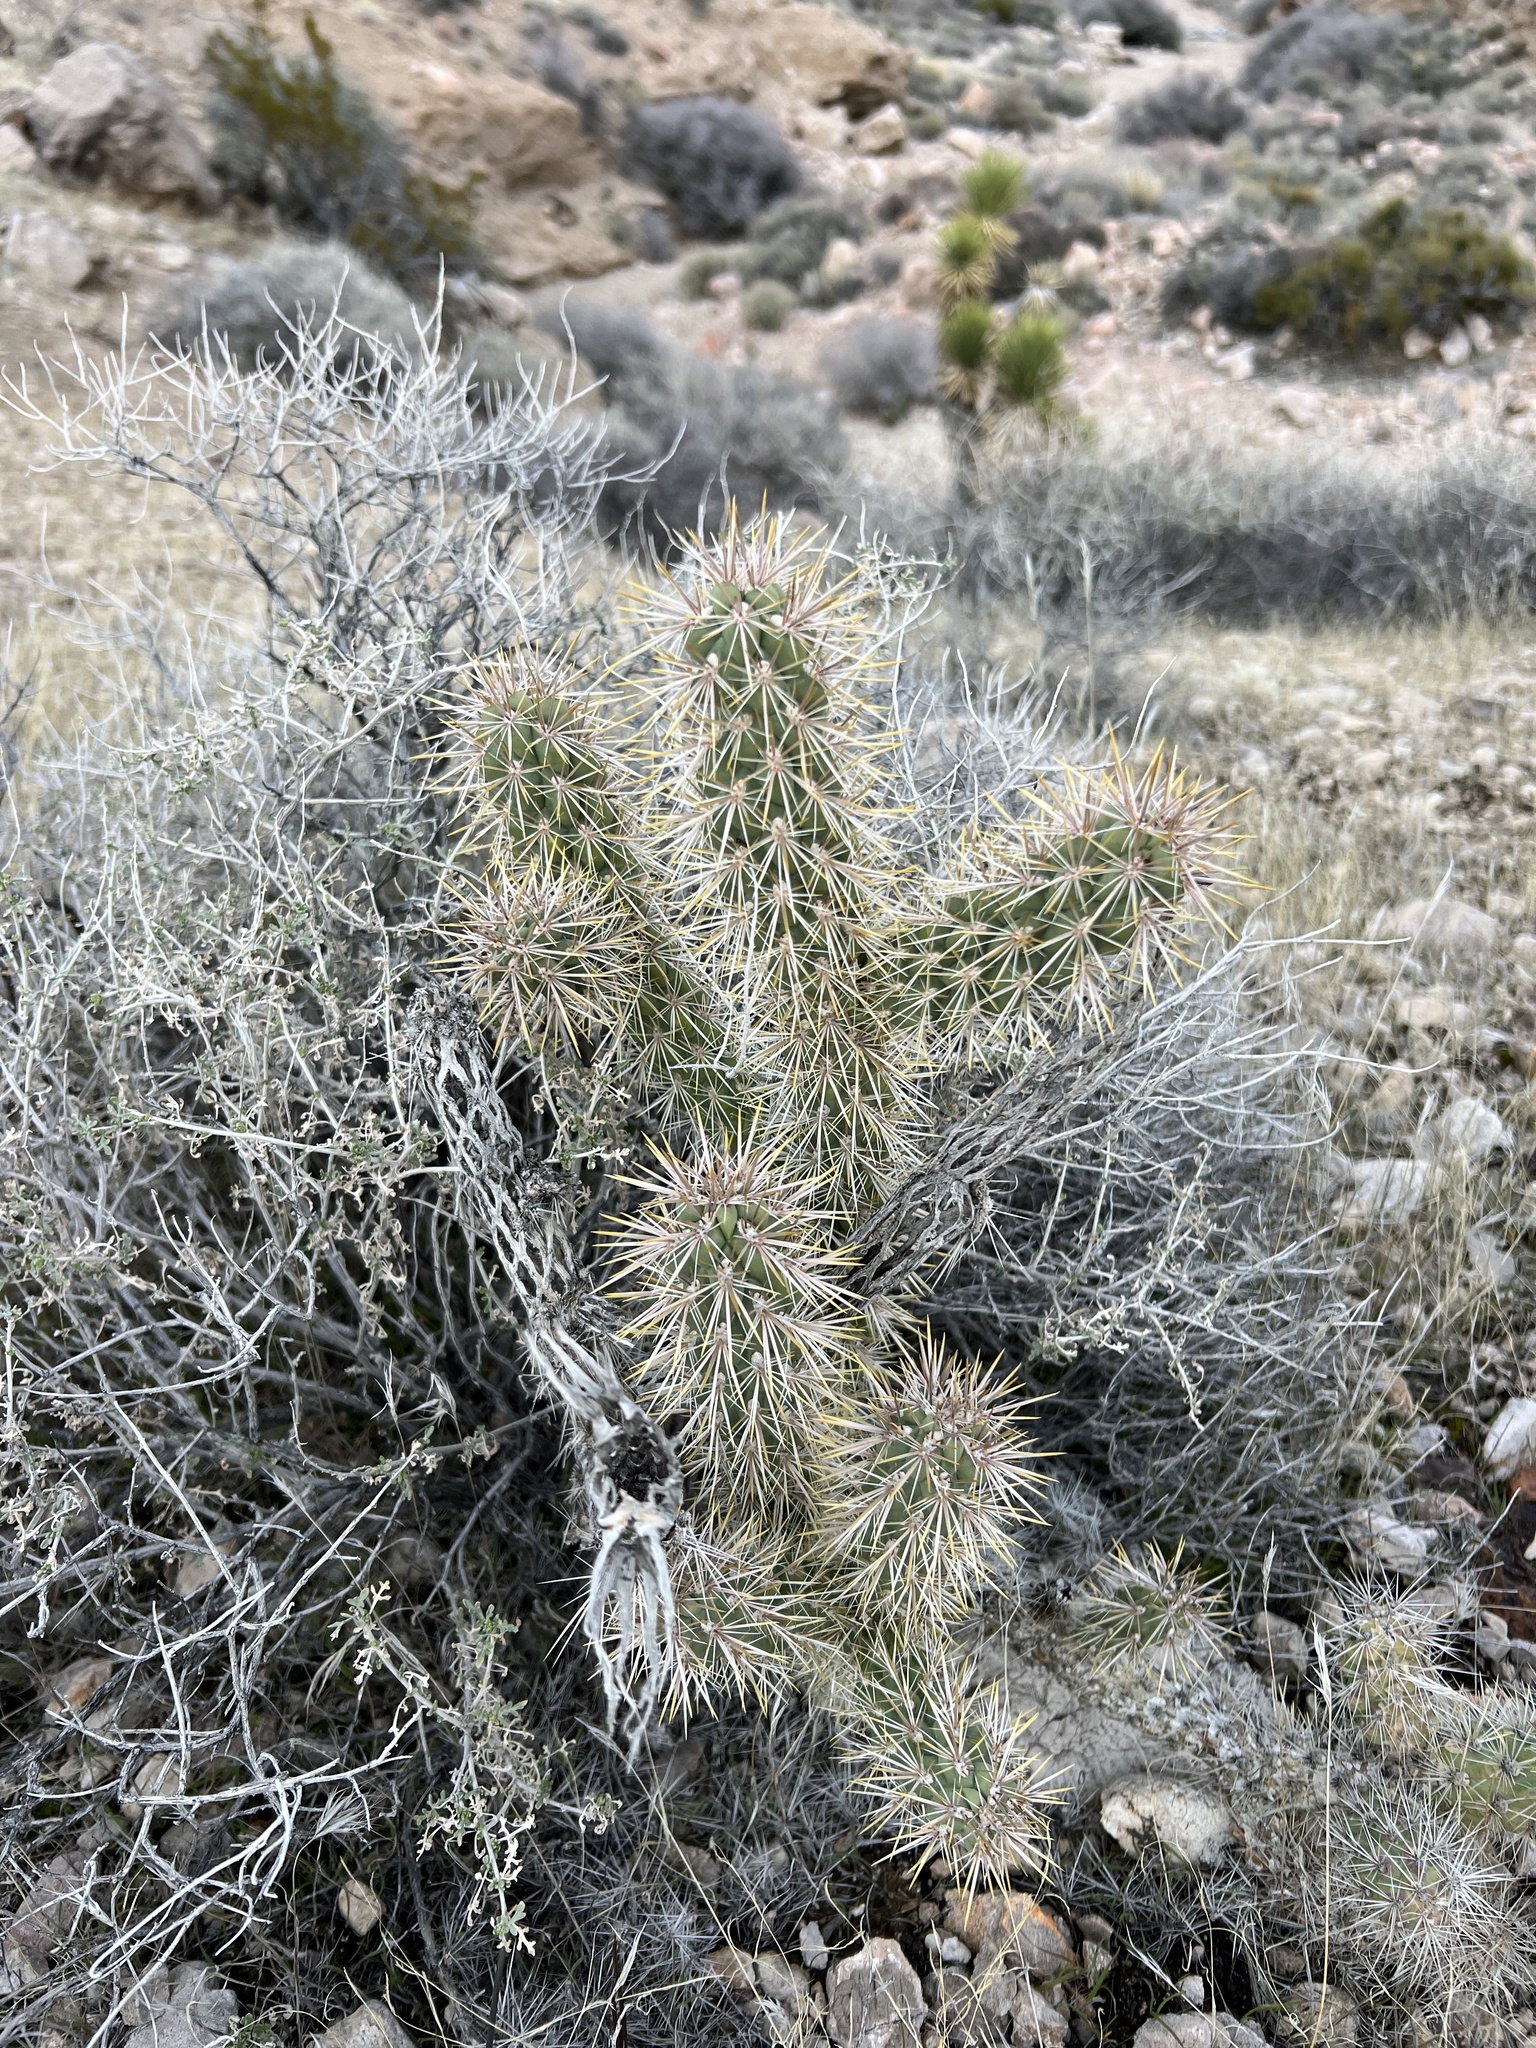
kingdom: Plantae
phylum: Tracheophyta
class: Magnoliopsida
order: Caryophyllales
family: Cactaceae
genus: Cylindropuntia
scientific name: Cylindropuntia echinocarpa
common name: Ground cholla
